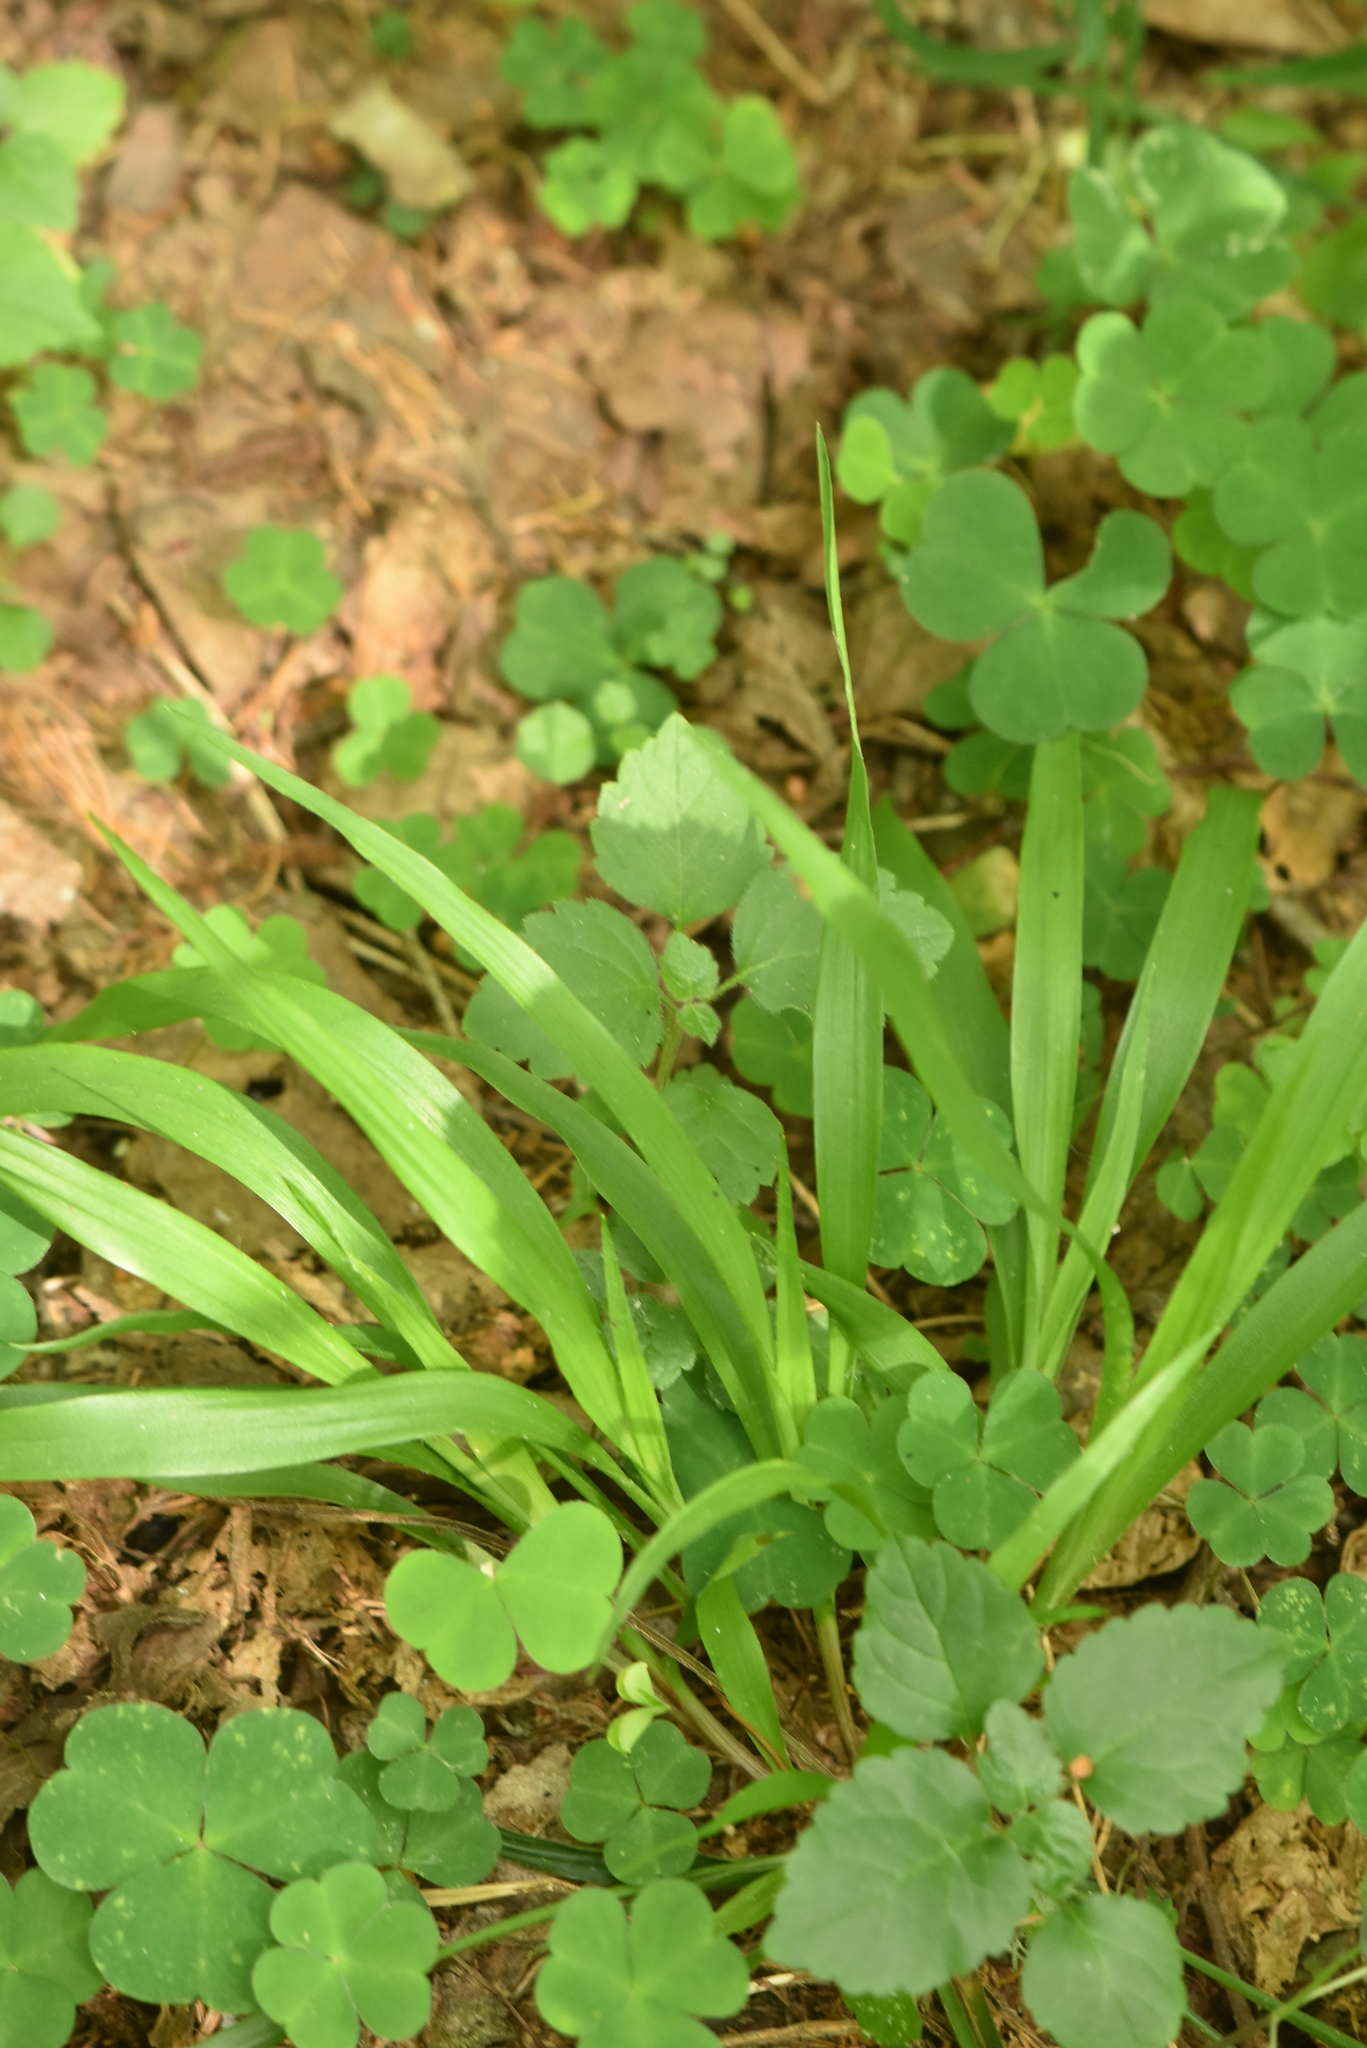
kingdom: Plantae
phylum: Tracheophyta
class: Liliopsida
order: Poales
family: Juncaceae
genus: Luzula
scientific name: Luzula pilosa
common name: Hairy wood-rush
